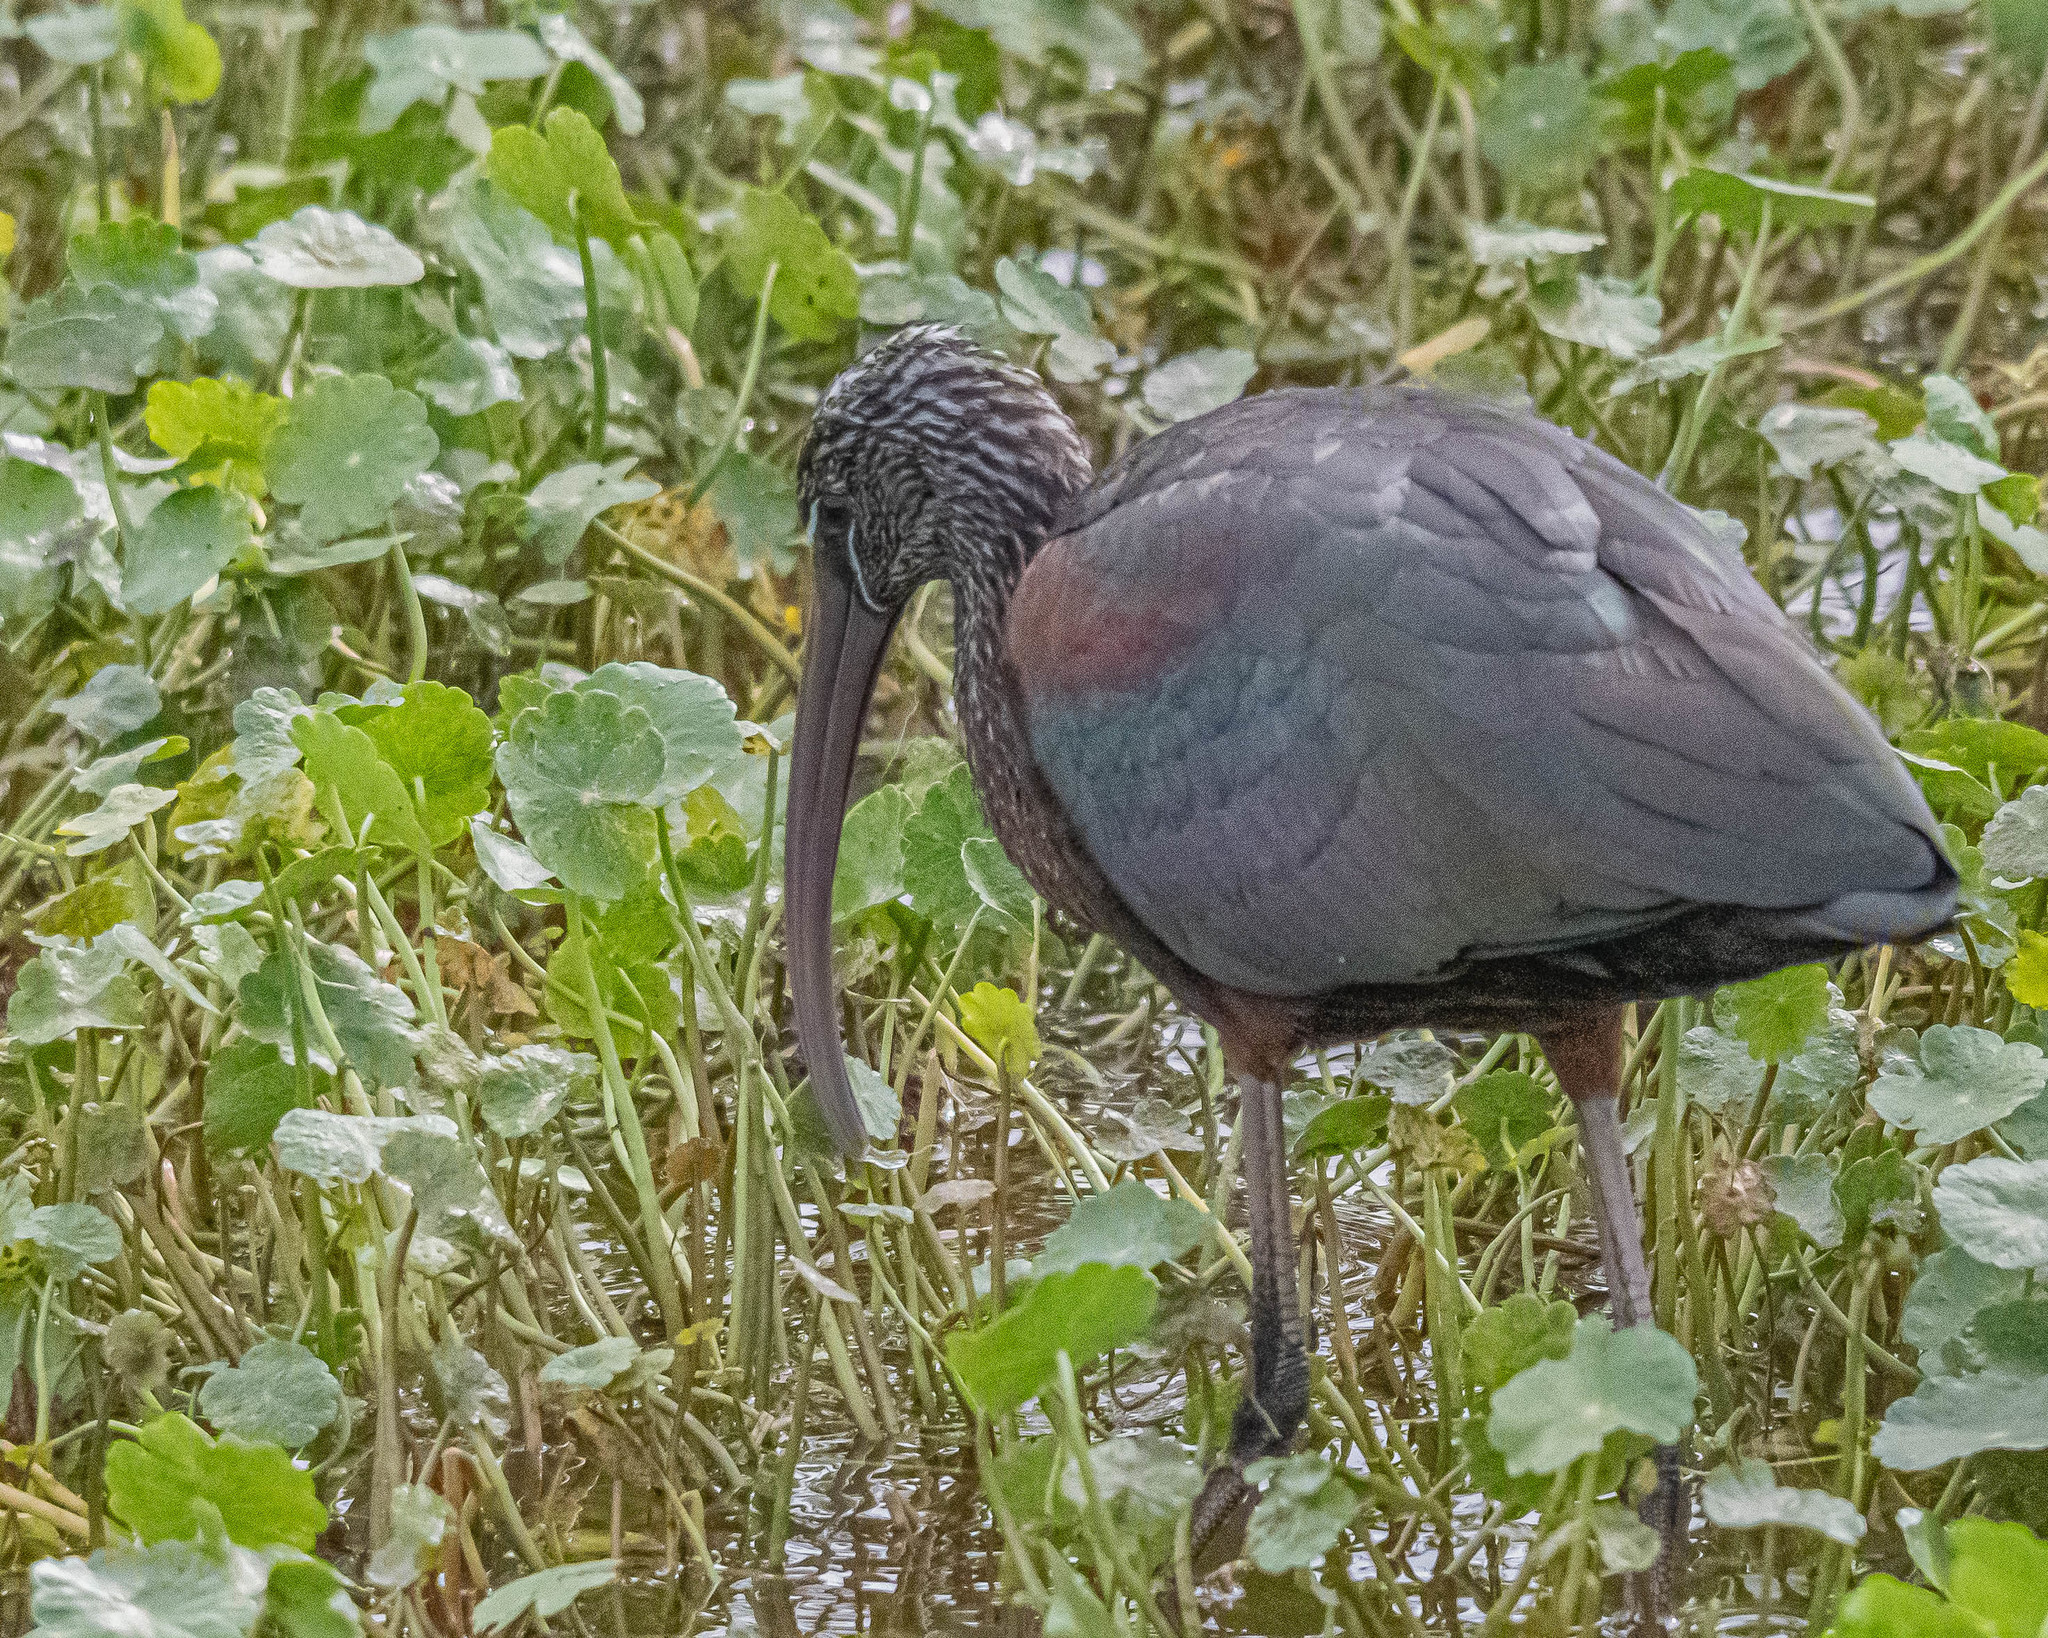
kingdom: Animalia
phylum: Chordata
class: Aves
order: Pelecaniformes
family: Threskiornithidae
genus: Plegadis
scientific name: Plegadis falcinellus
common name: Glossy ibis
